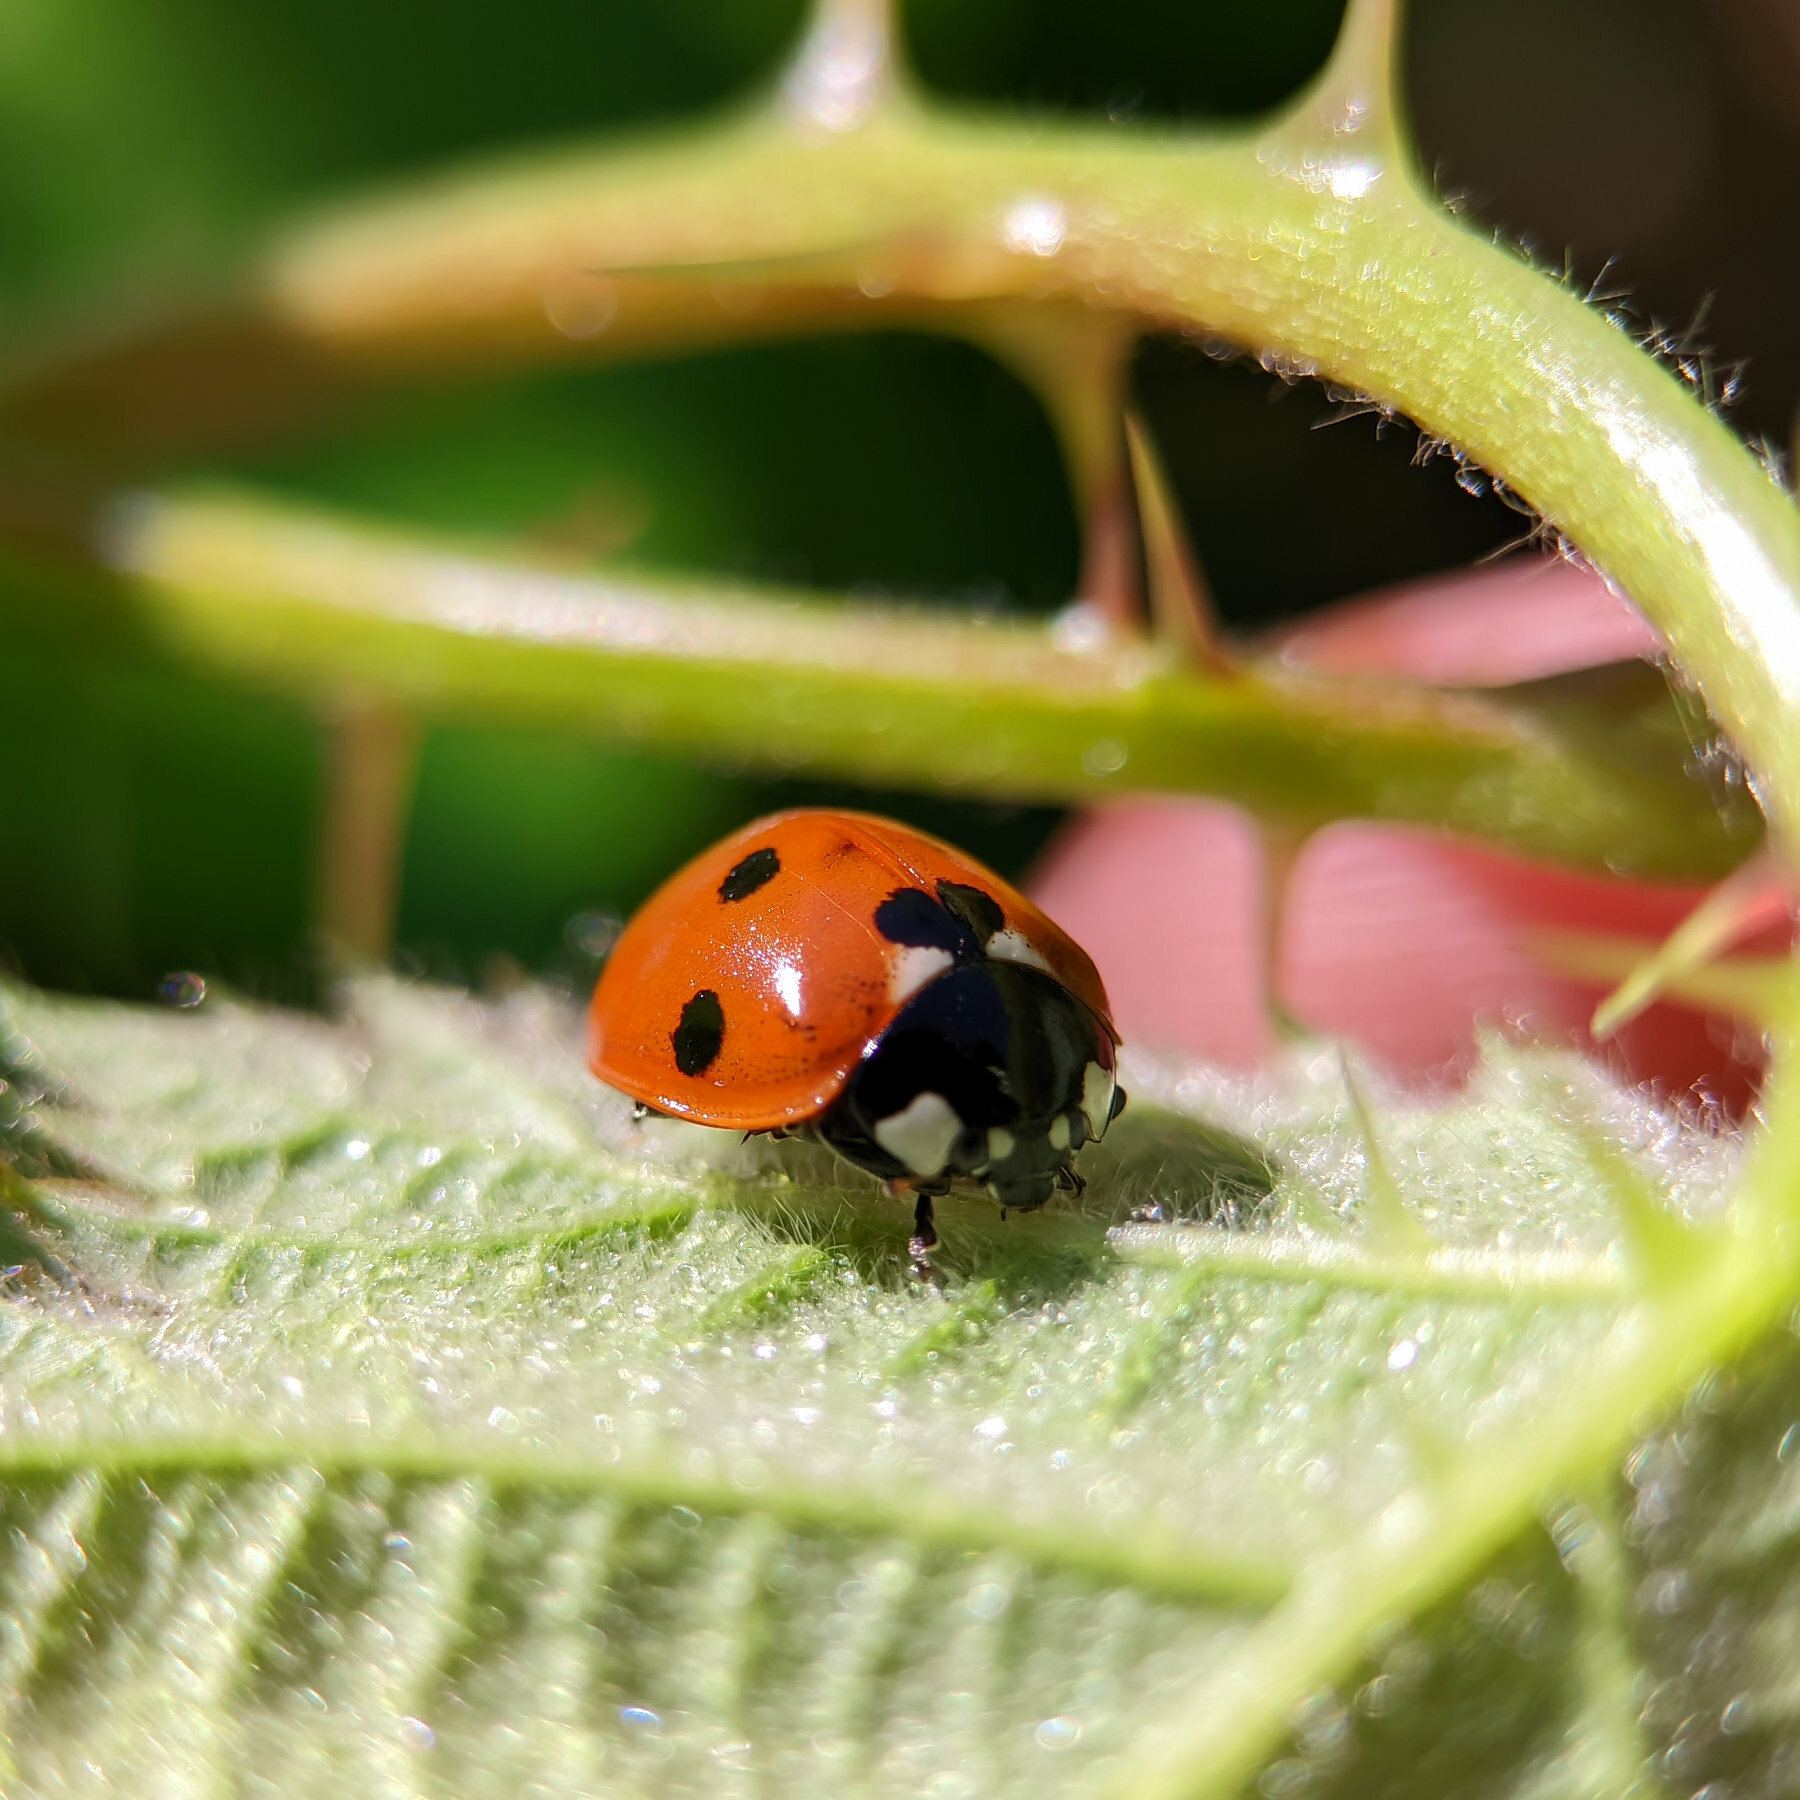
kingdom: Animalia
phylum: Arthropoda
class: Insecta
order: Coleoptera
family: Coccinellidae
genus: Coccinella
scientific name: Coccinella septempunctata
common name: Sevenspotted lady beetle
